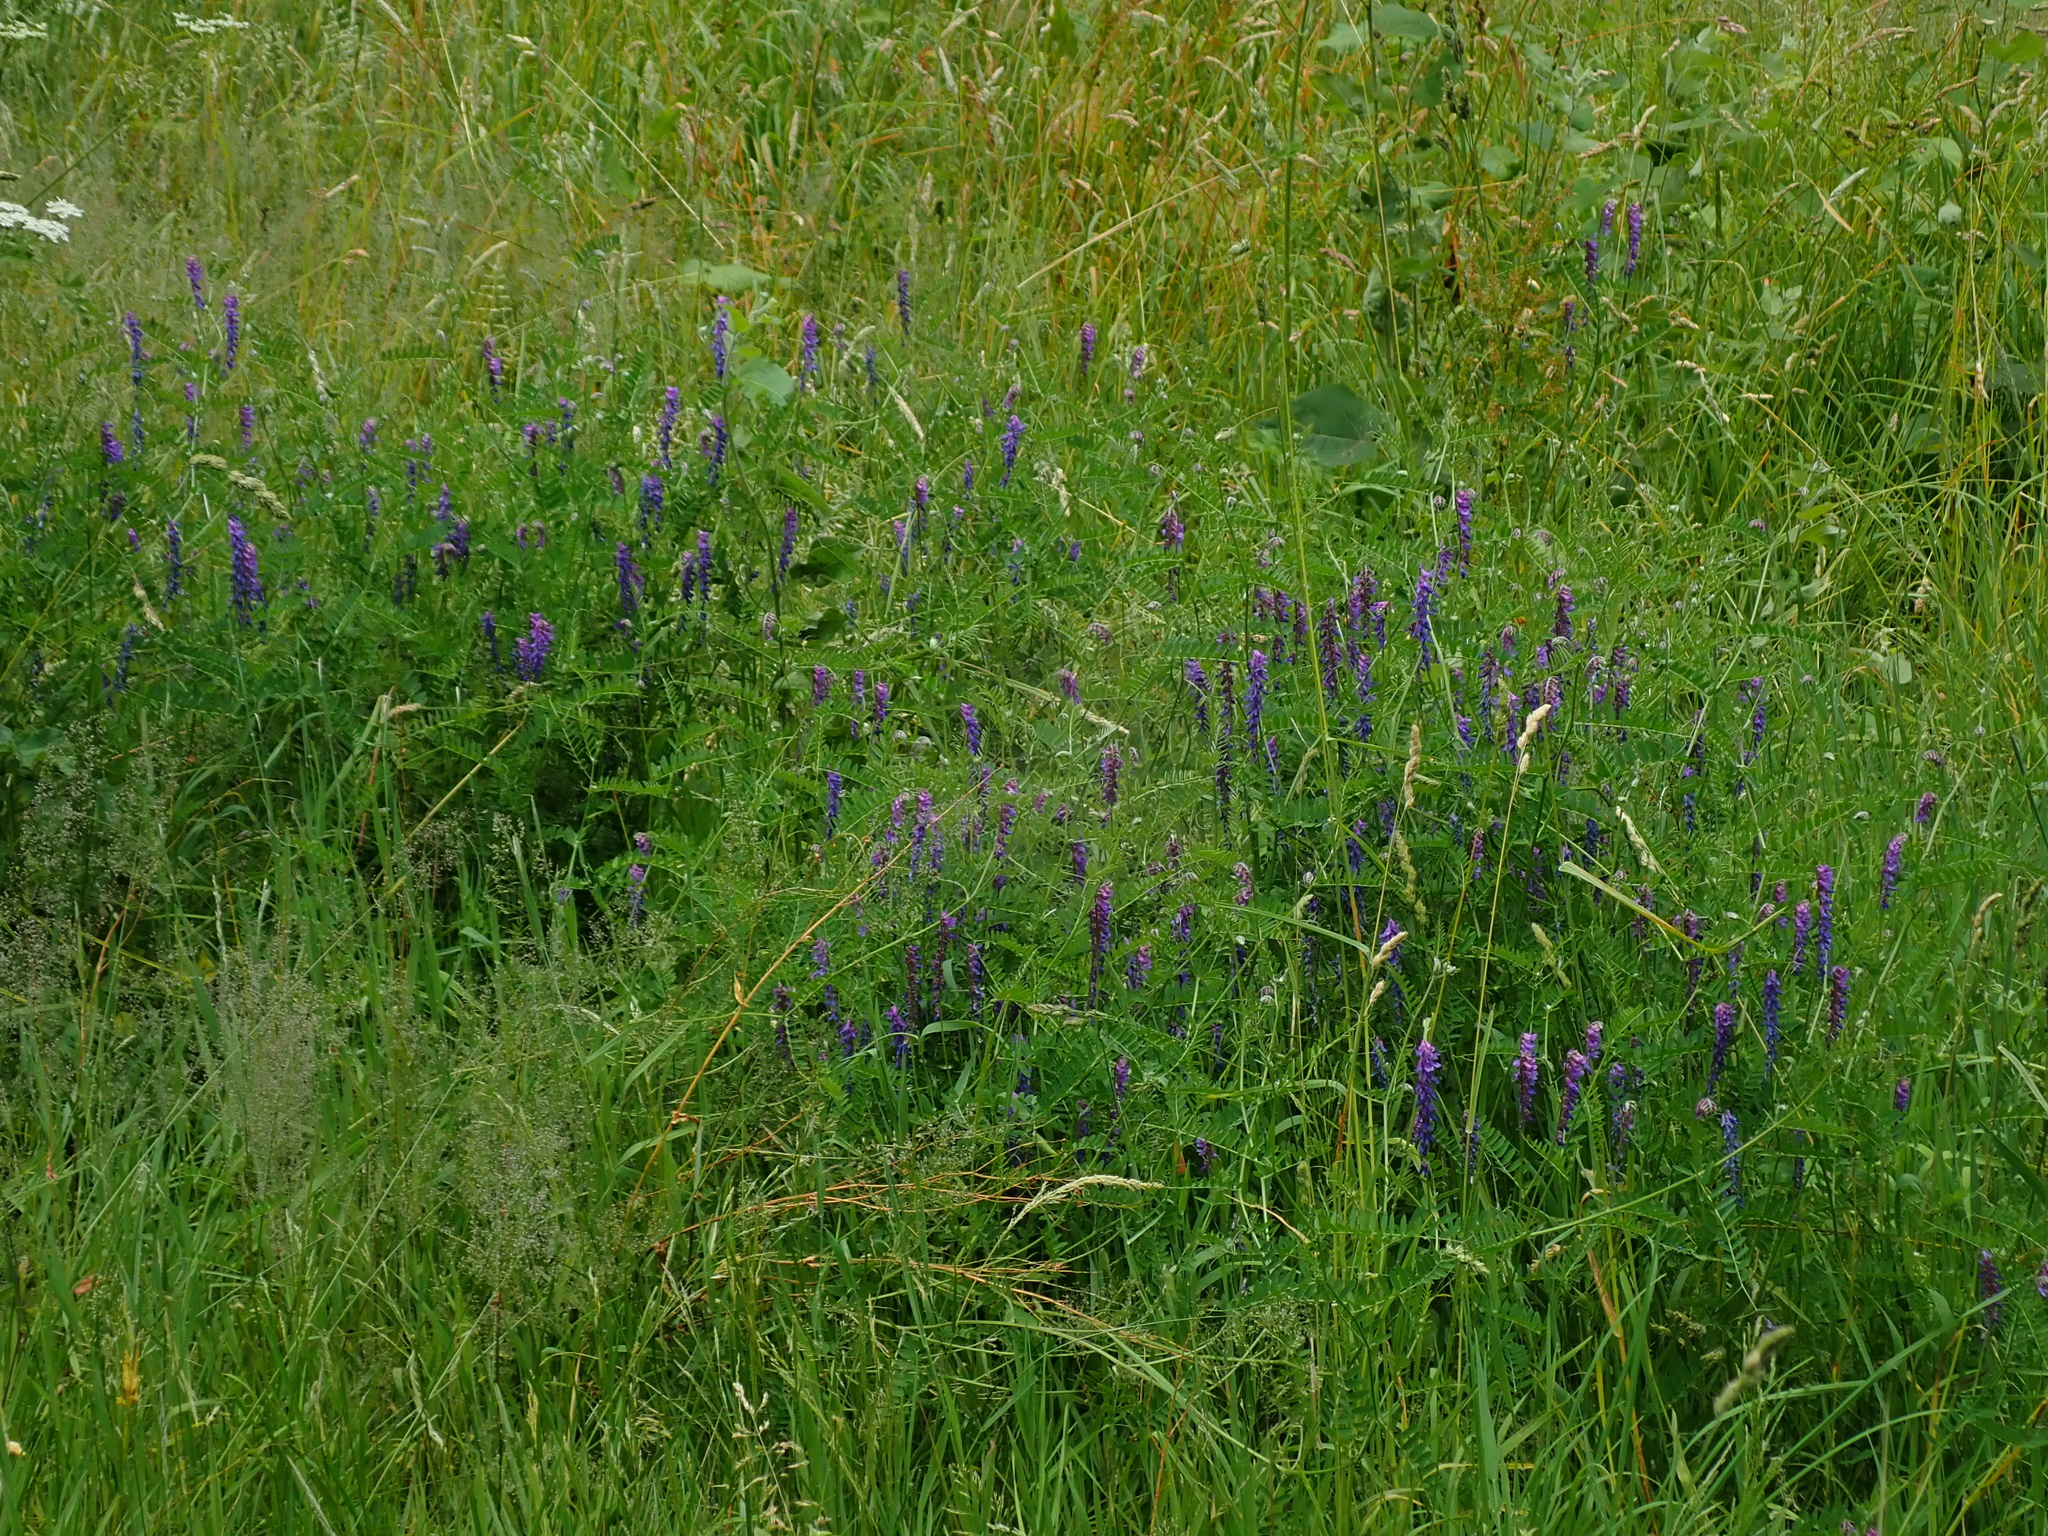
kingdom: Plantae
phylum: Tracheophyta
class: Magnoliopsida
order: Fabales
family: Fabaceae
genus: Vicia
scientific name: Vicia cracca
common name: Bird vetch
